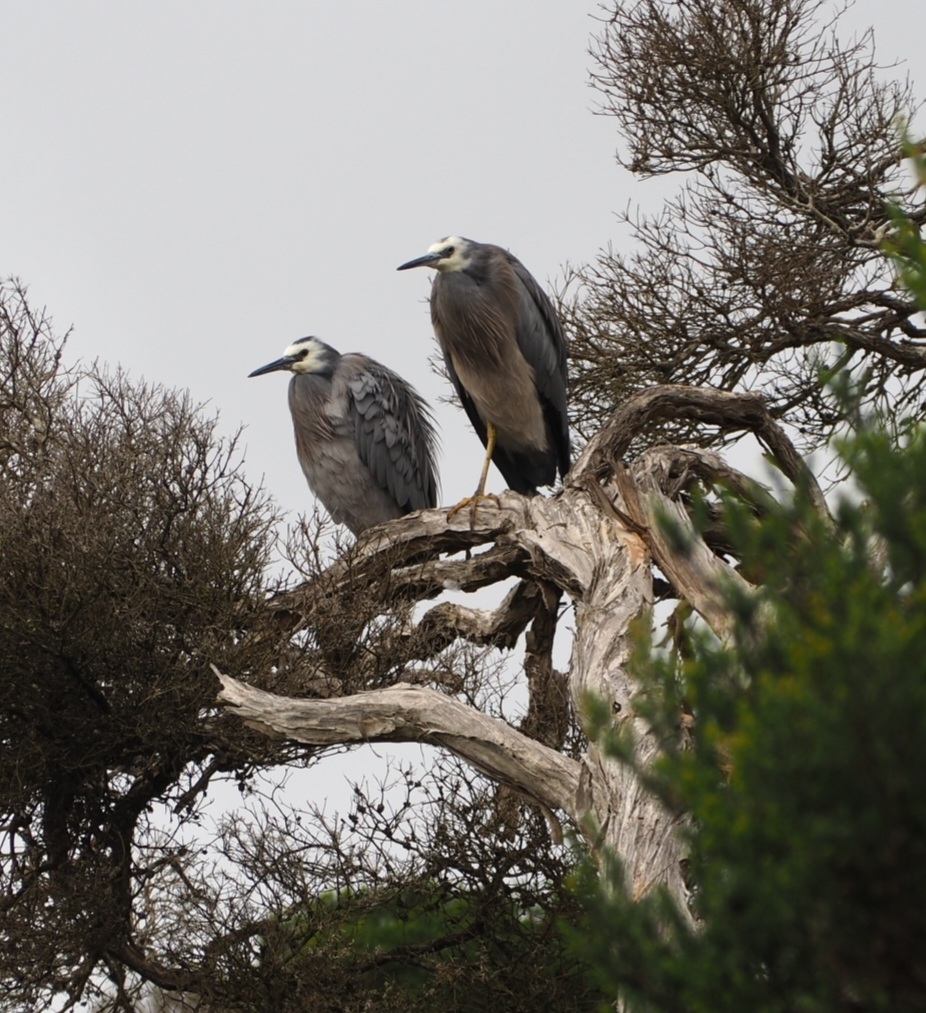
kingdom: Animalia
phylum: Chordata
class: Aves
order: Pelecaniformes
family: Ardeidae
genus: Egretta
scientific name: Egretta novaehollandiae
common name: White-faced heron
